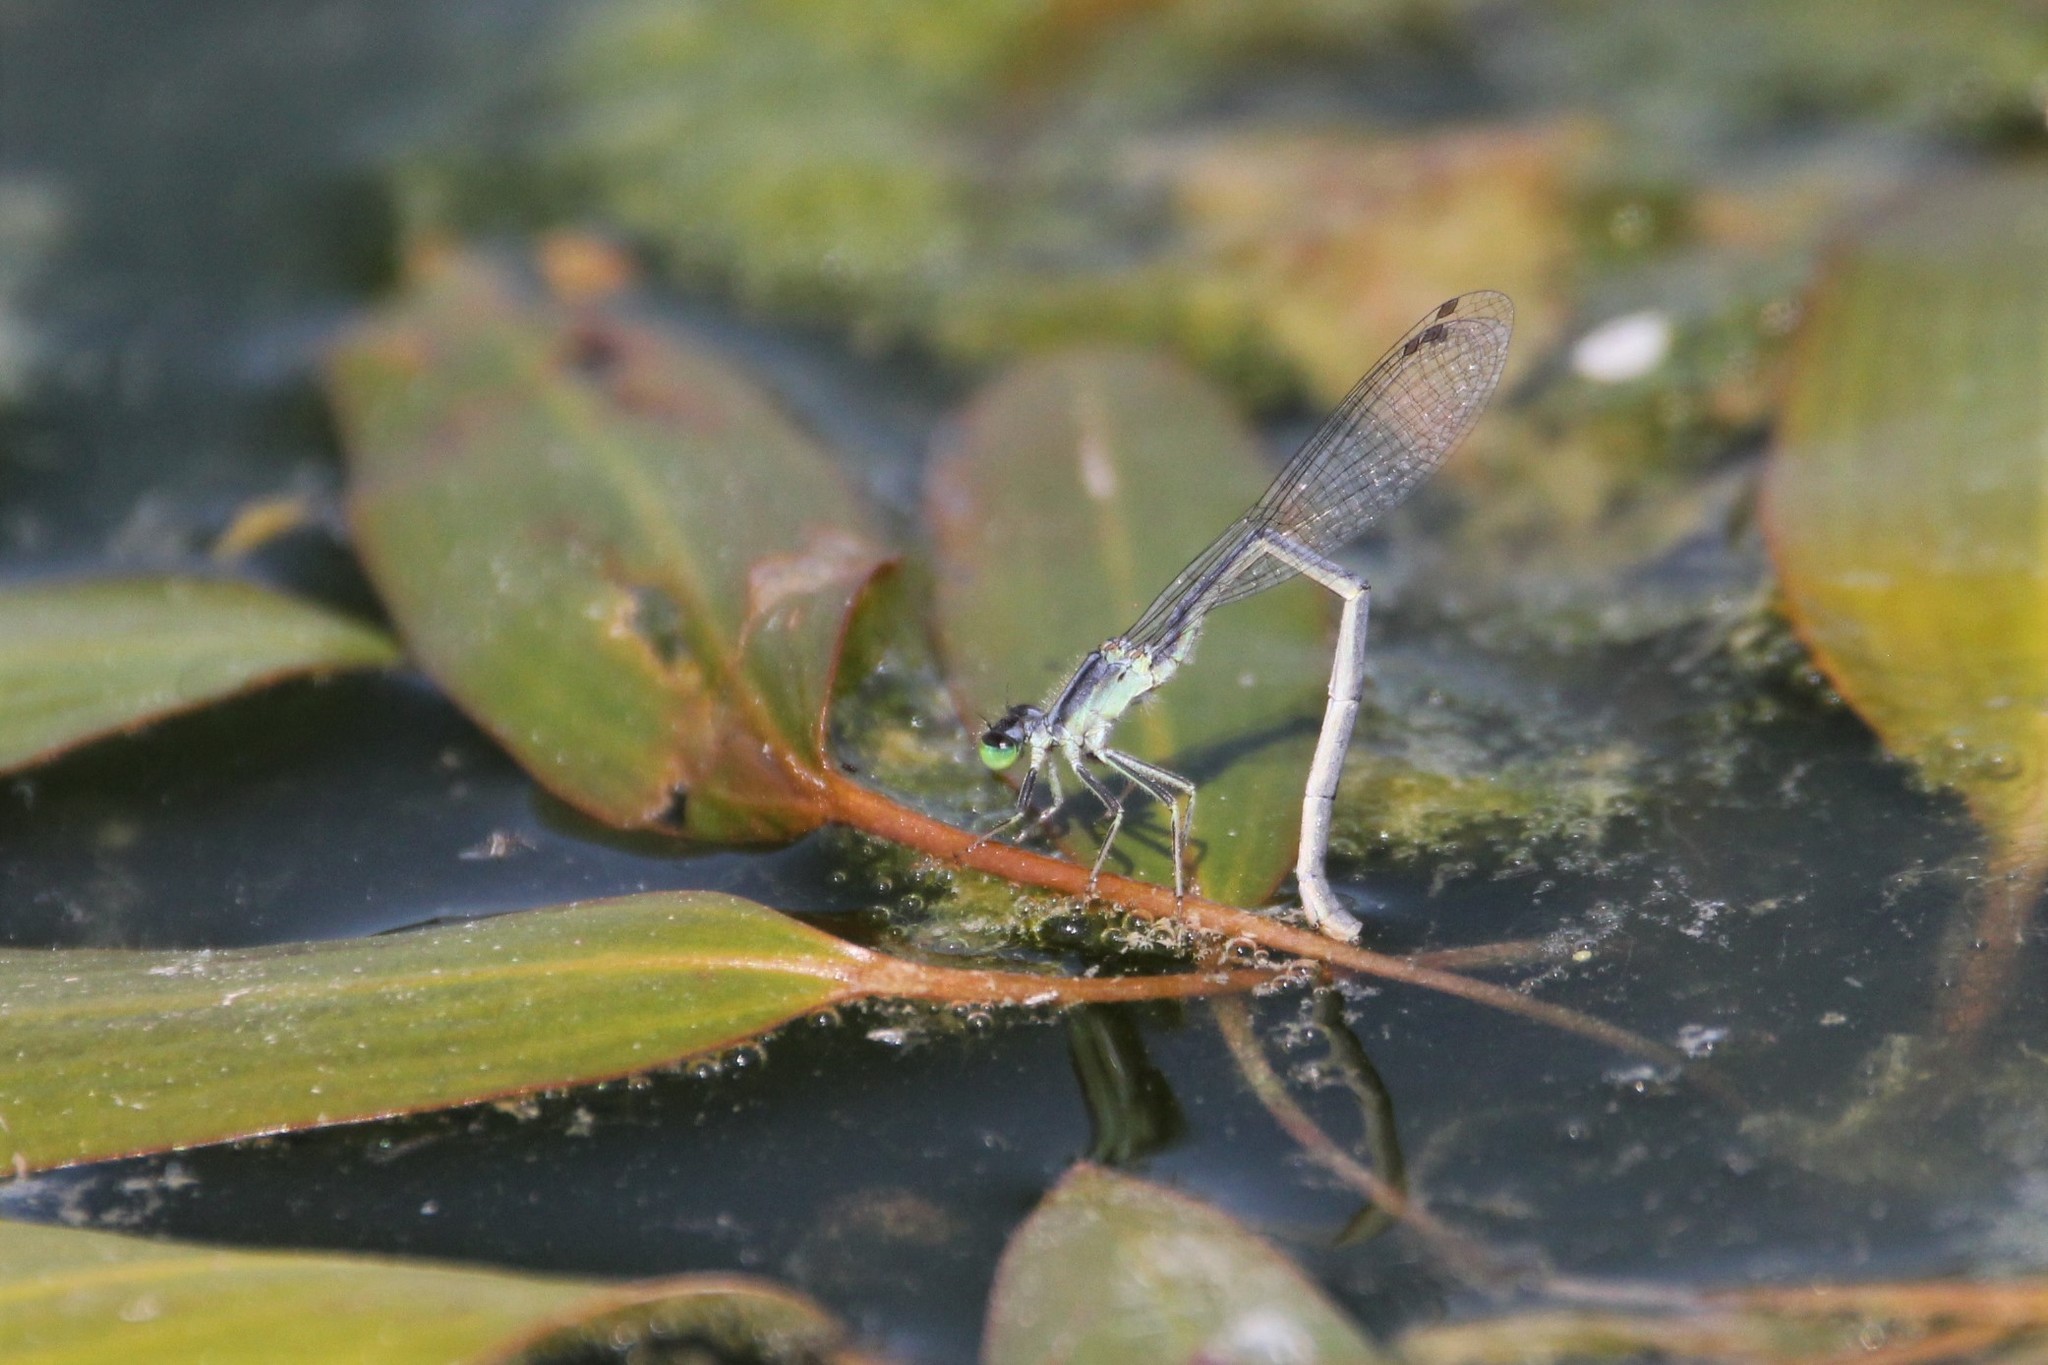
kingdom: Animalia
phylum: Arthropoda
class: Insecta
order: Odonata
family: Coenagrionidae
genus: Ischnura
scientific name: Ischnura verticalis
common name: Eastern forktail
